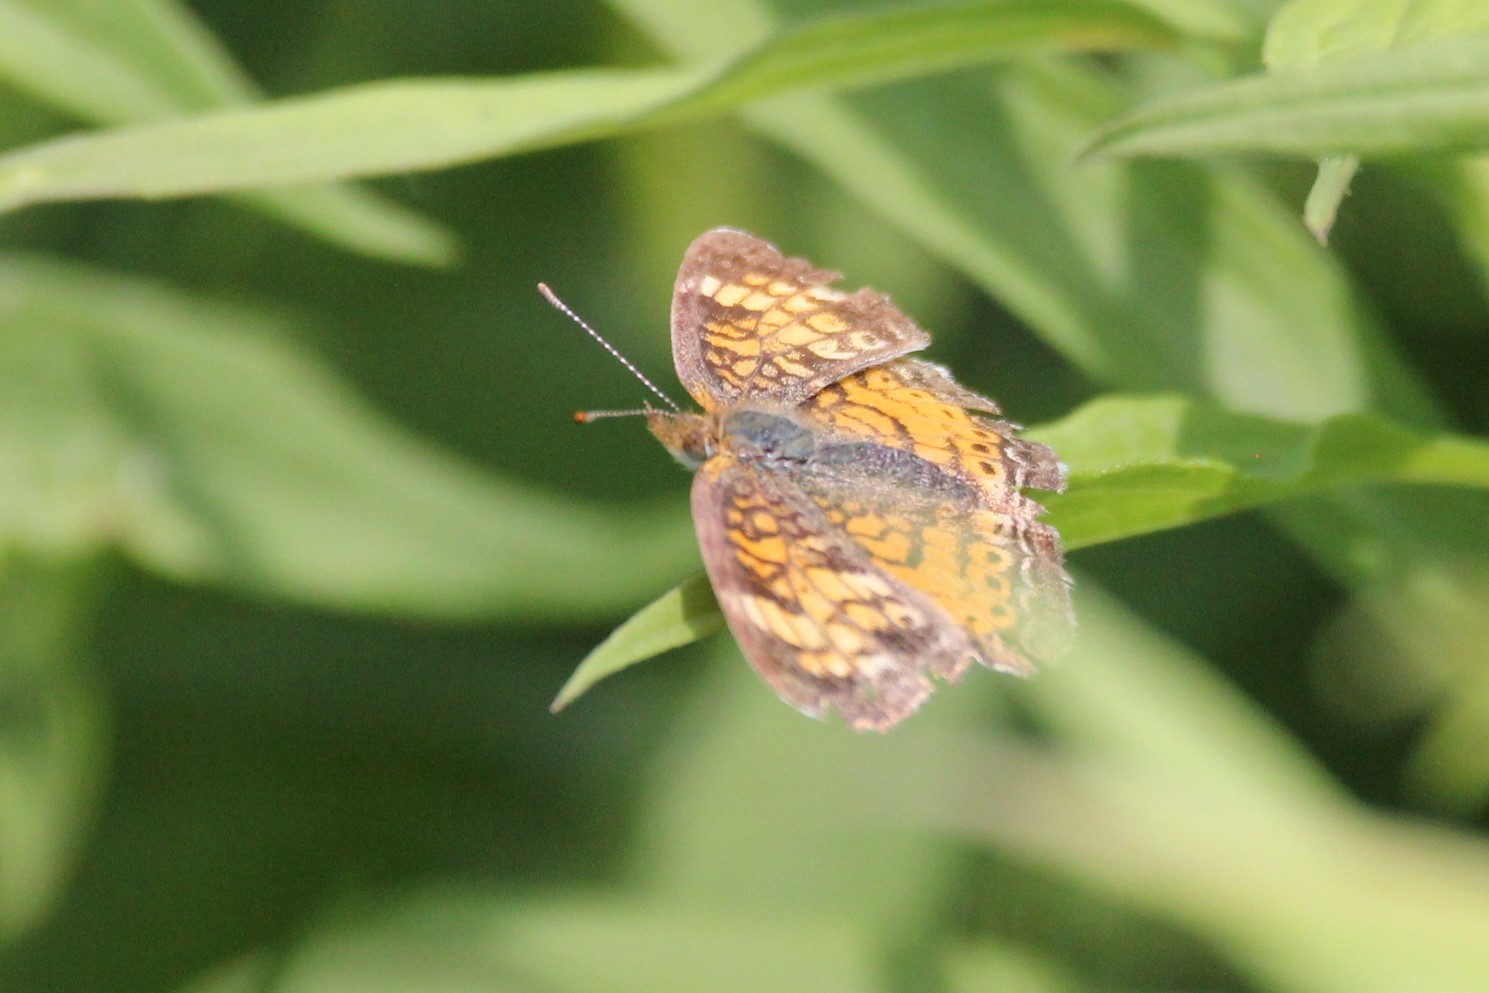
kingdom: Animalia
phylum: Arthropoda
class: Insecta
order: Lepidoptera
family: Nymphalidae
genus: Phyciodes
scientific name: Phyciodes tharos
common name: Pearl crescent
